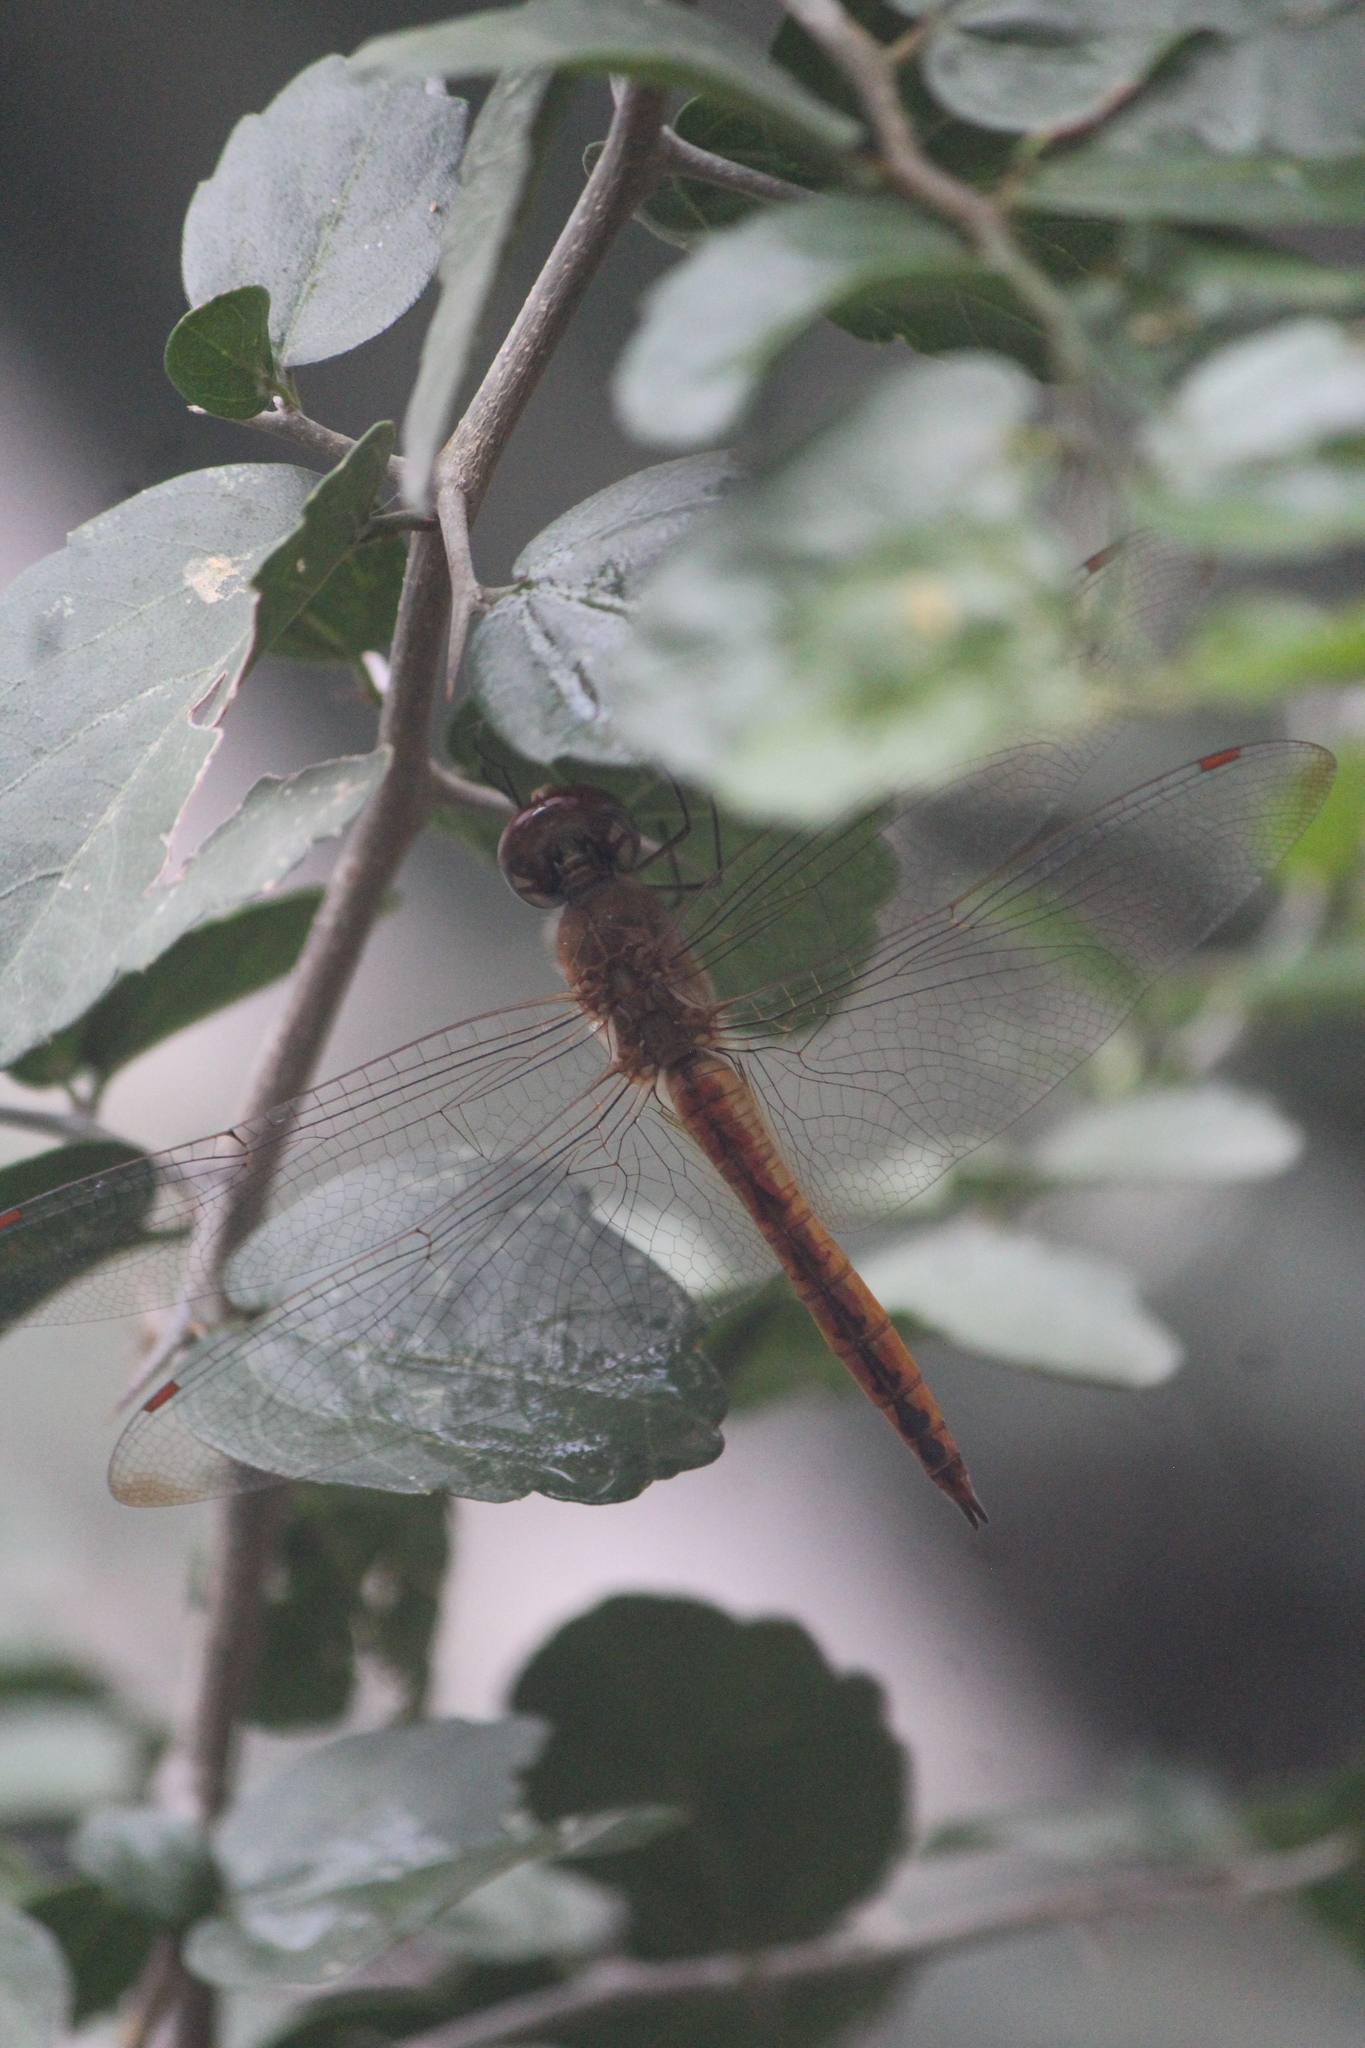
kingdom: Animalia
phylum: Arthropoda
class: Insecta
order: Odonata
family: Libellulidae
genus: Pantala
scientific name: Pantala flavescens
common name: Wandering glider
